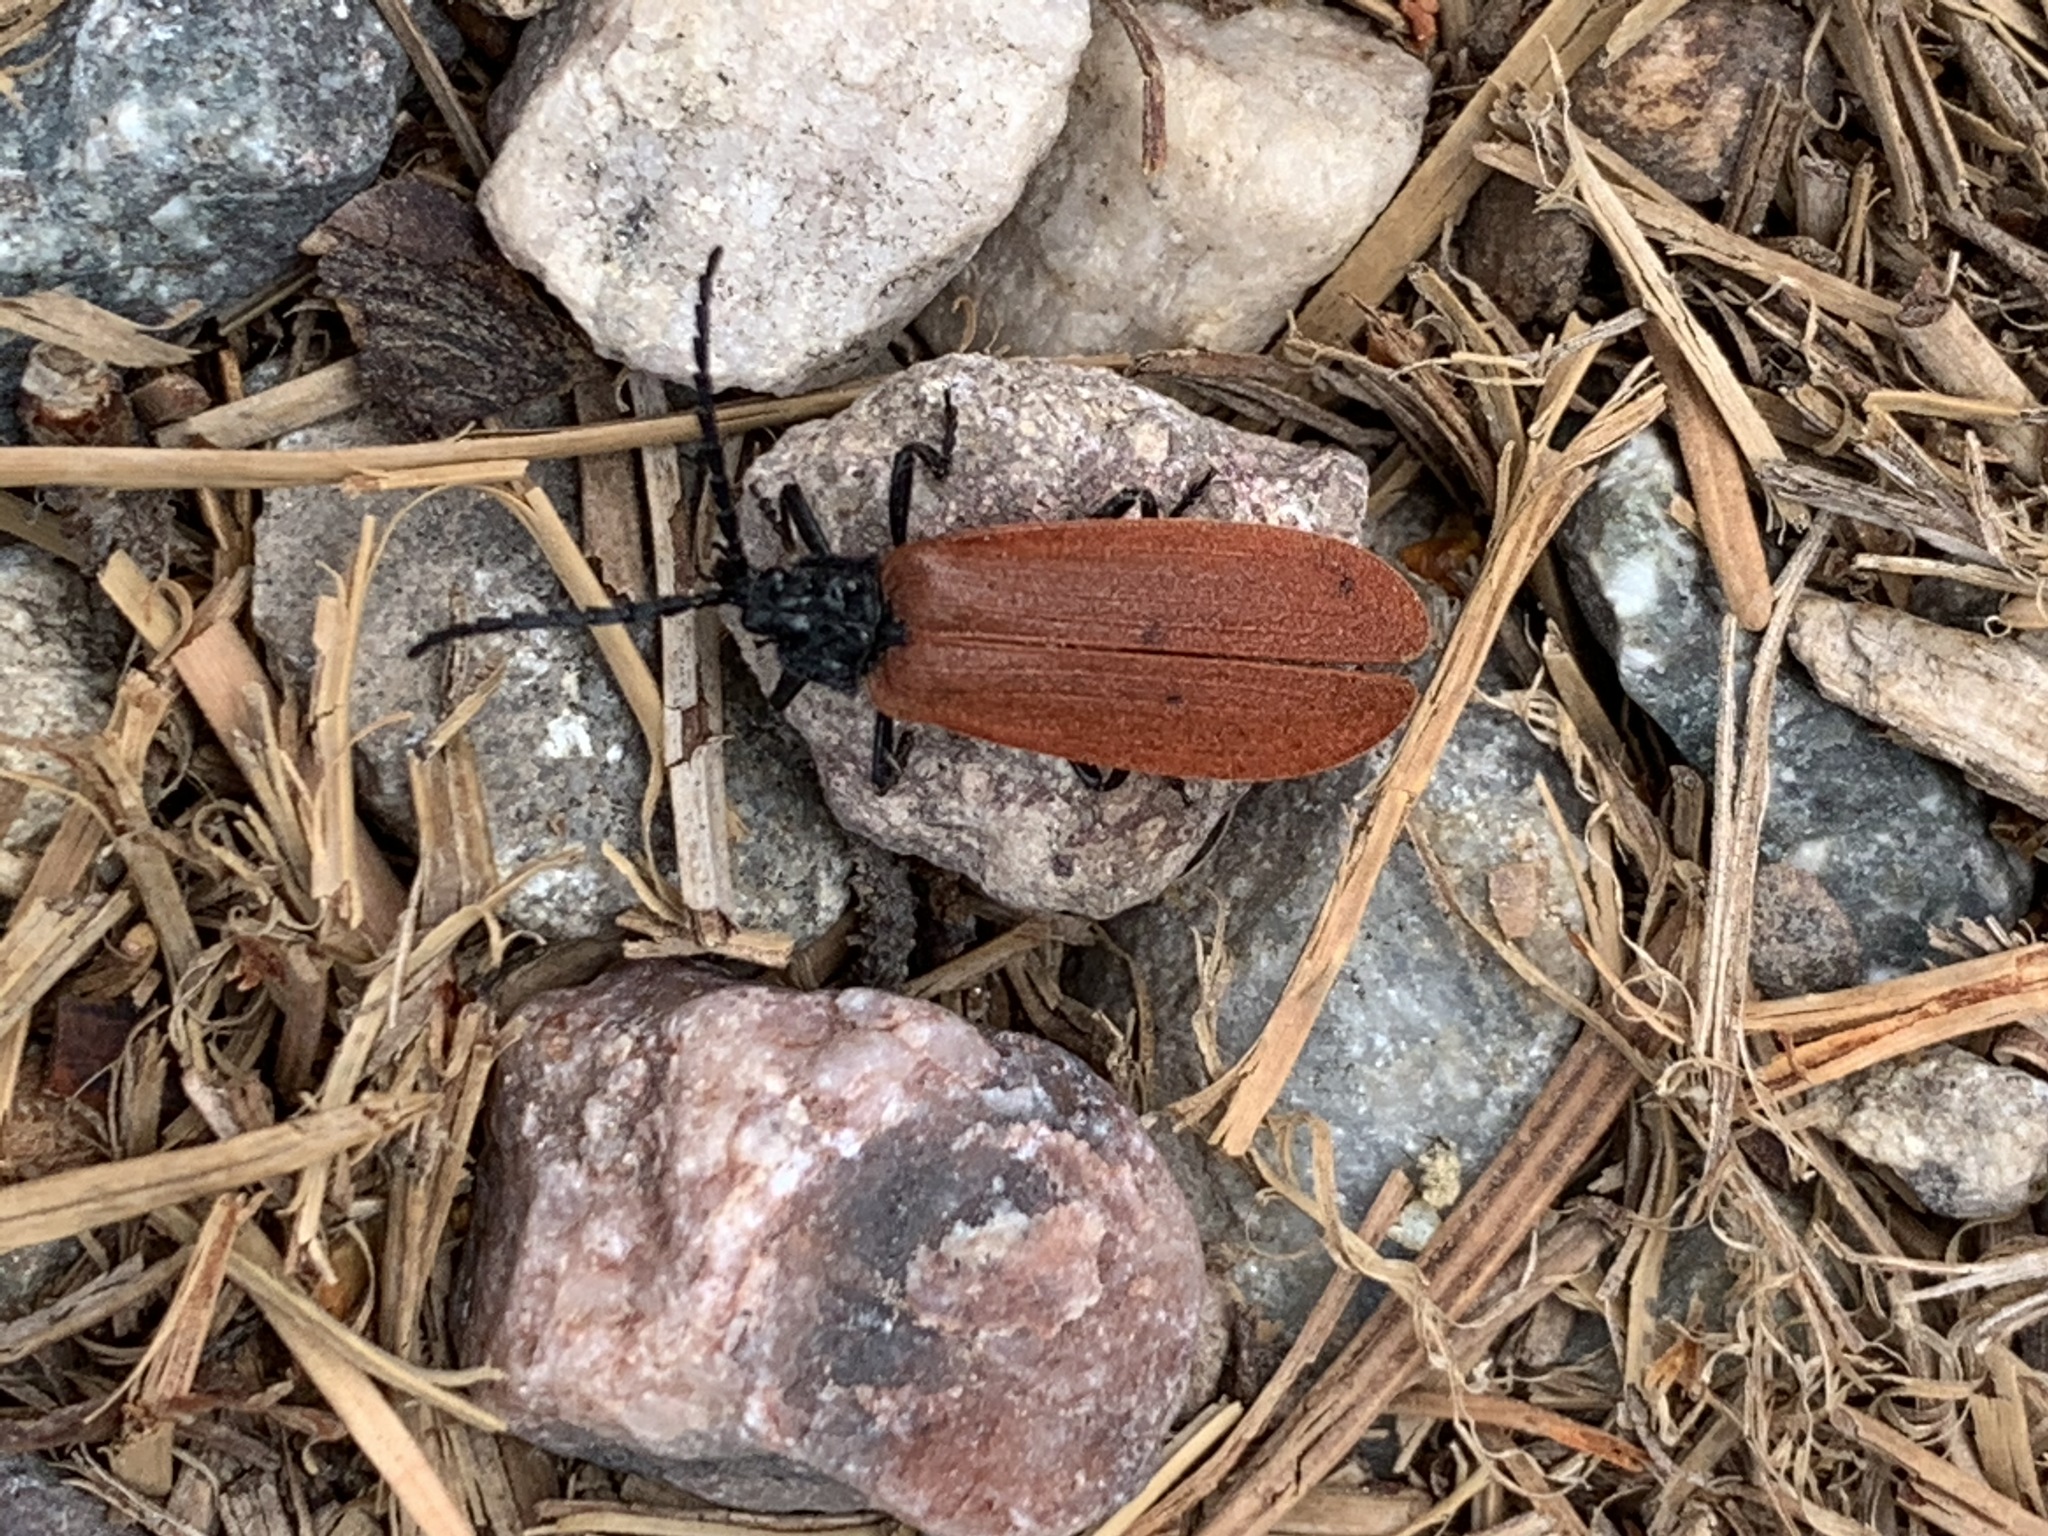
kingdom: Animalia
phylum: Arthropoda
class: Insecta
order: Coleoptera
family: Lycidae
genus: Macrolygistopterus
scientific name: Macrolygistopterus
